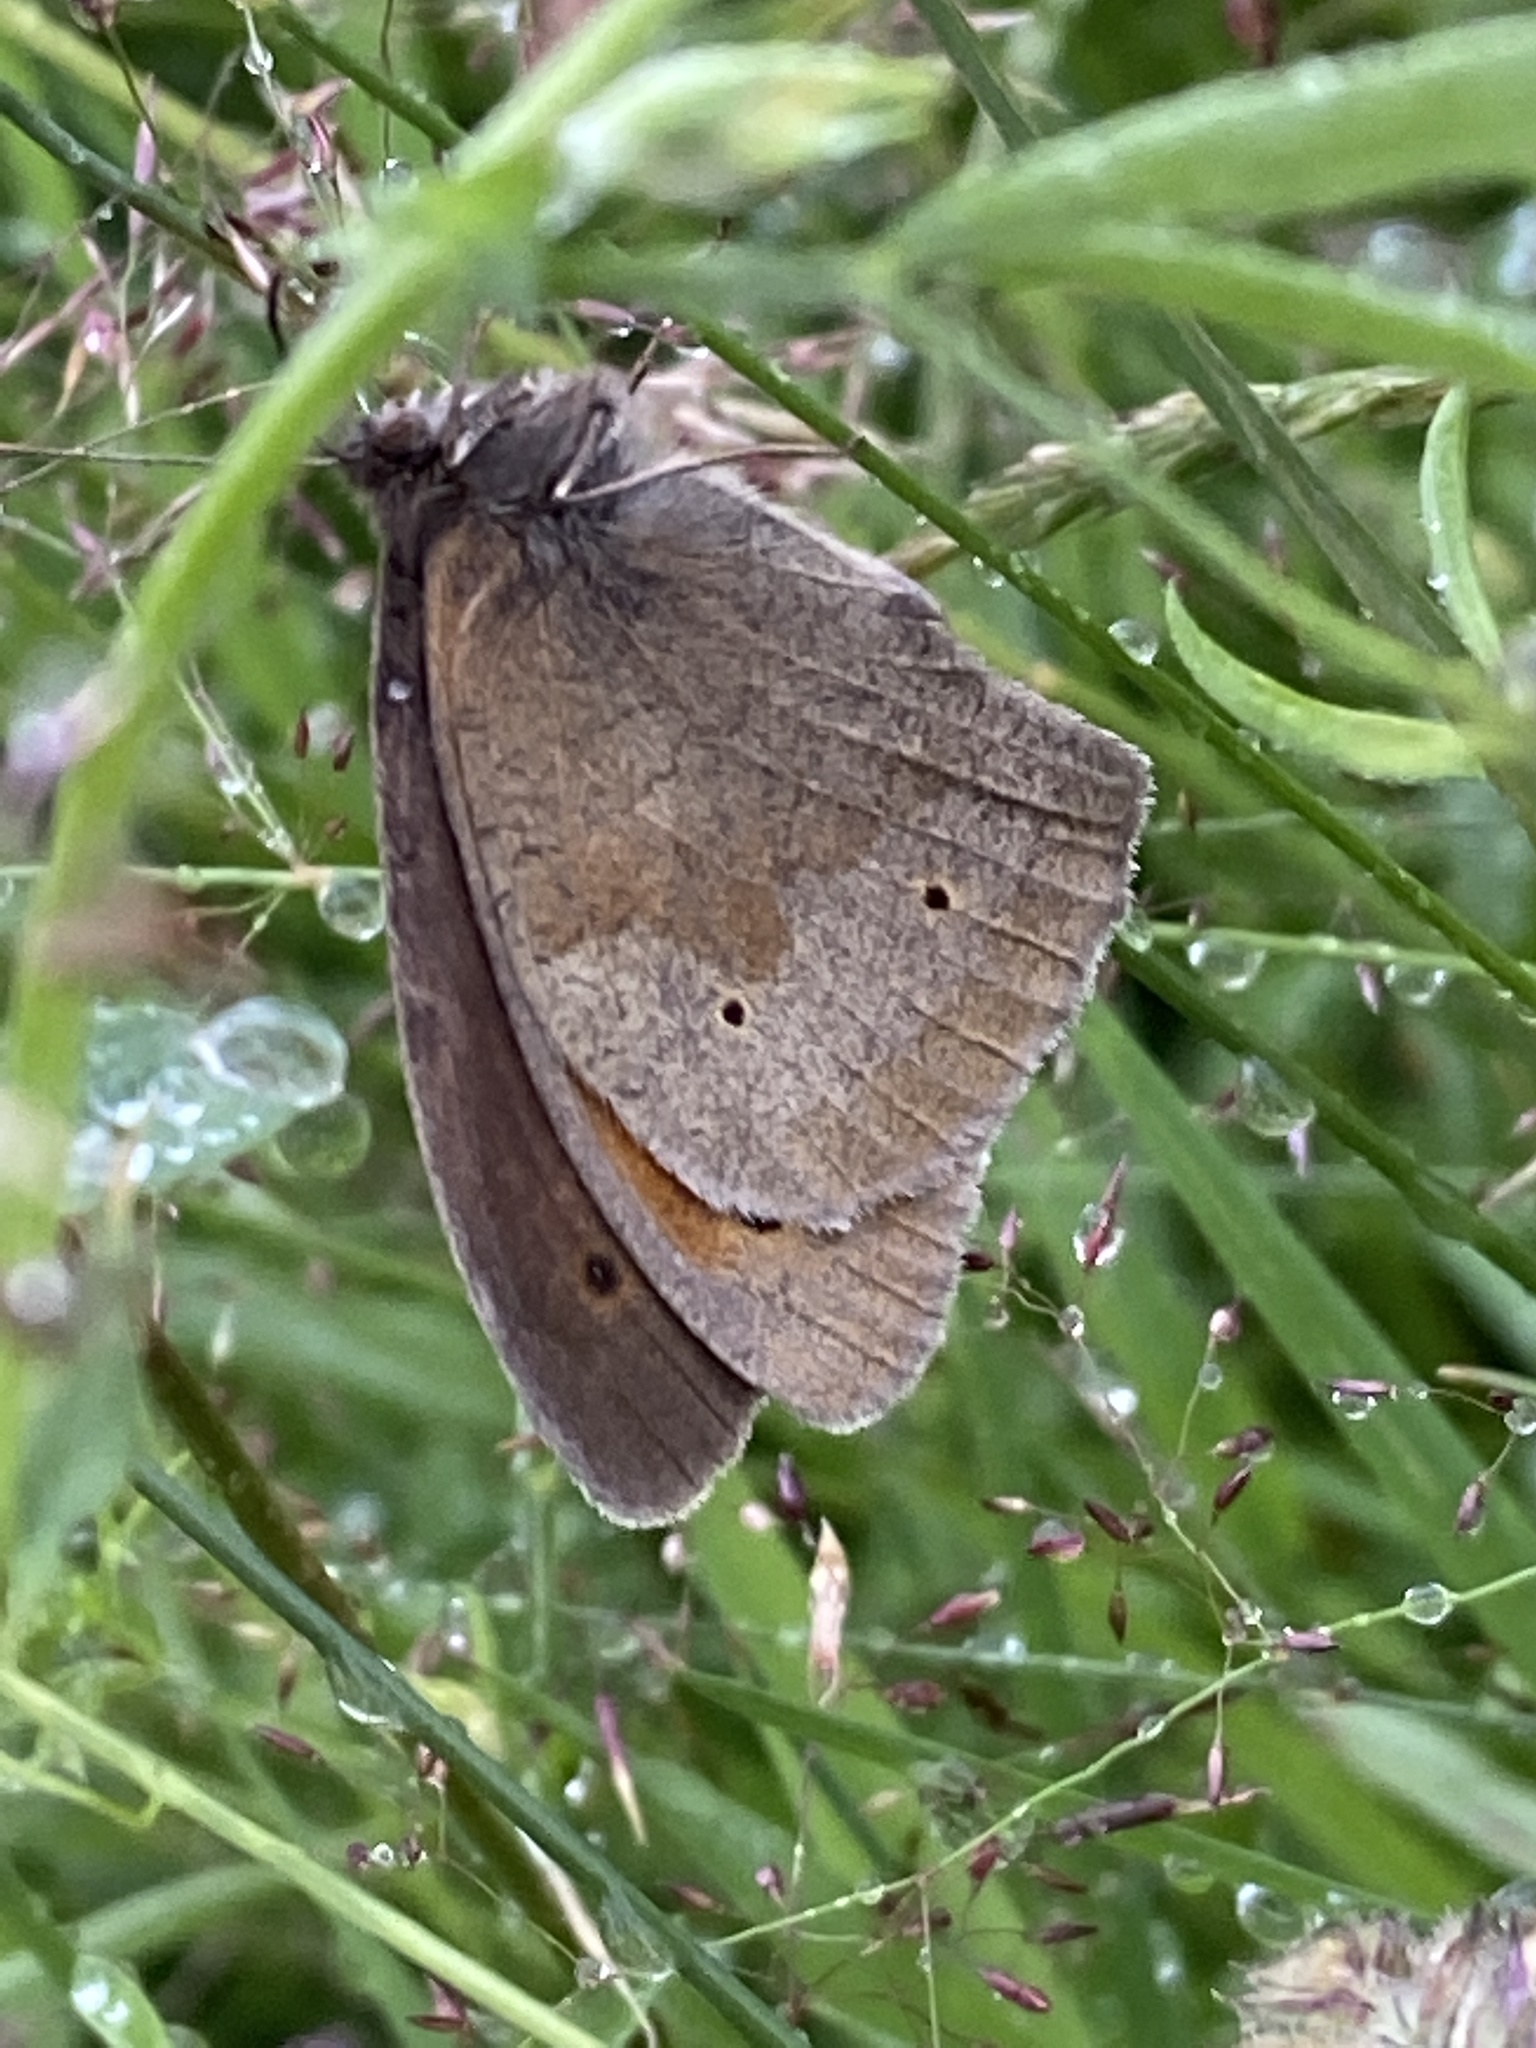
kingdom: Animalia
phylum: Arthropoda
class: Insecta
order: Lepidoptera
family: Nymphalidae
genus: Maniola
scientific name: Maniola jurtina
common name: Meadow brown
